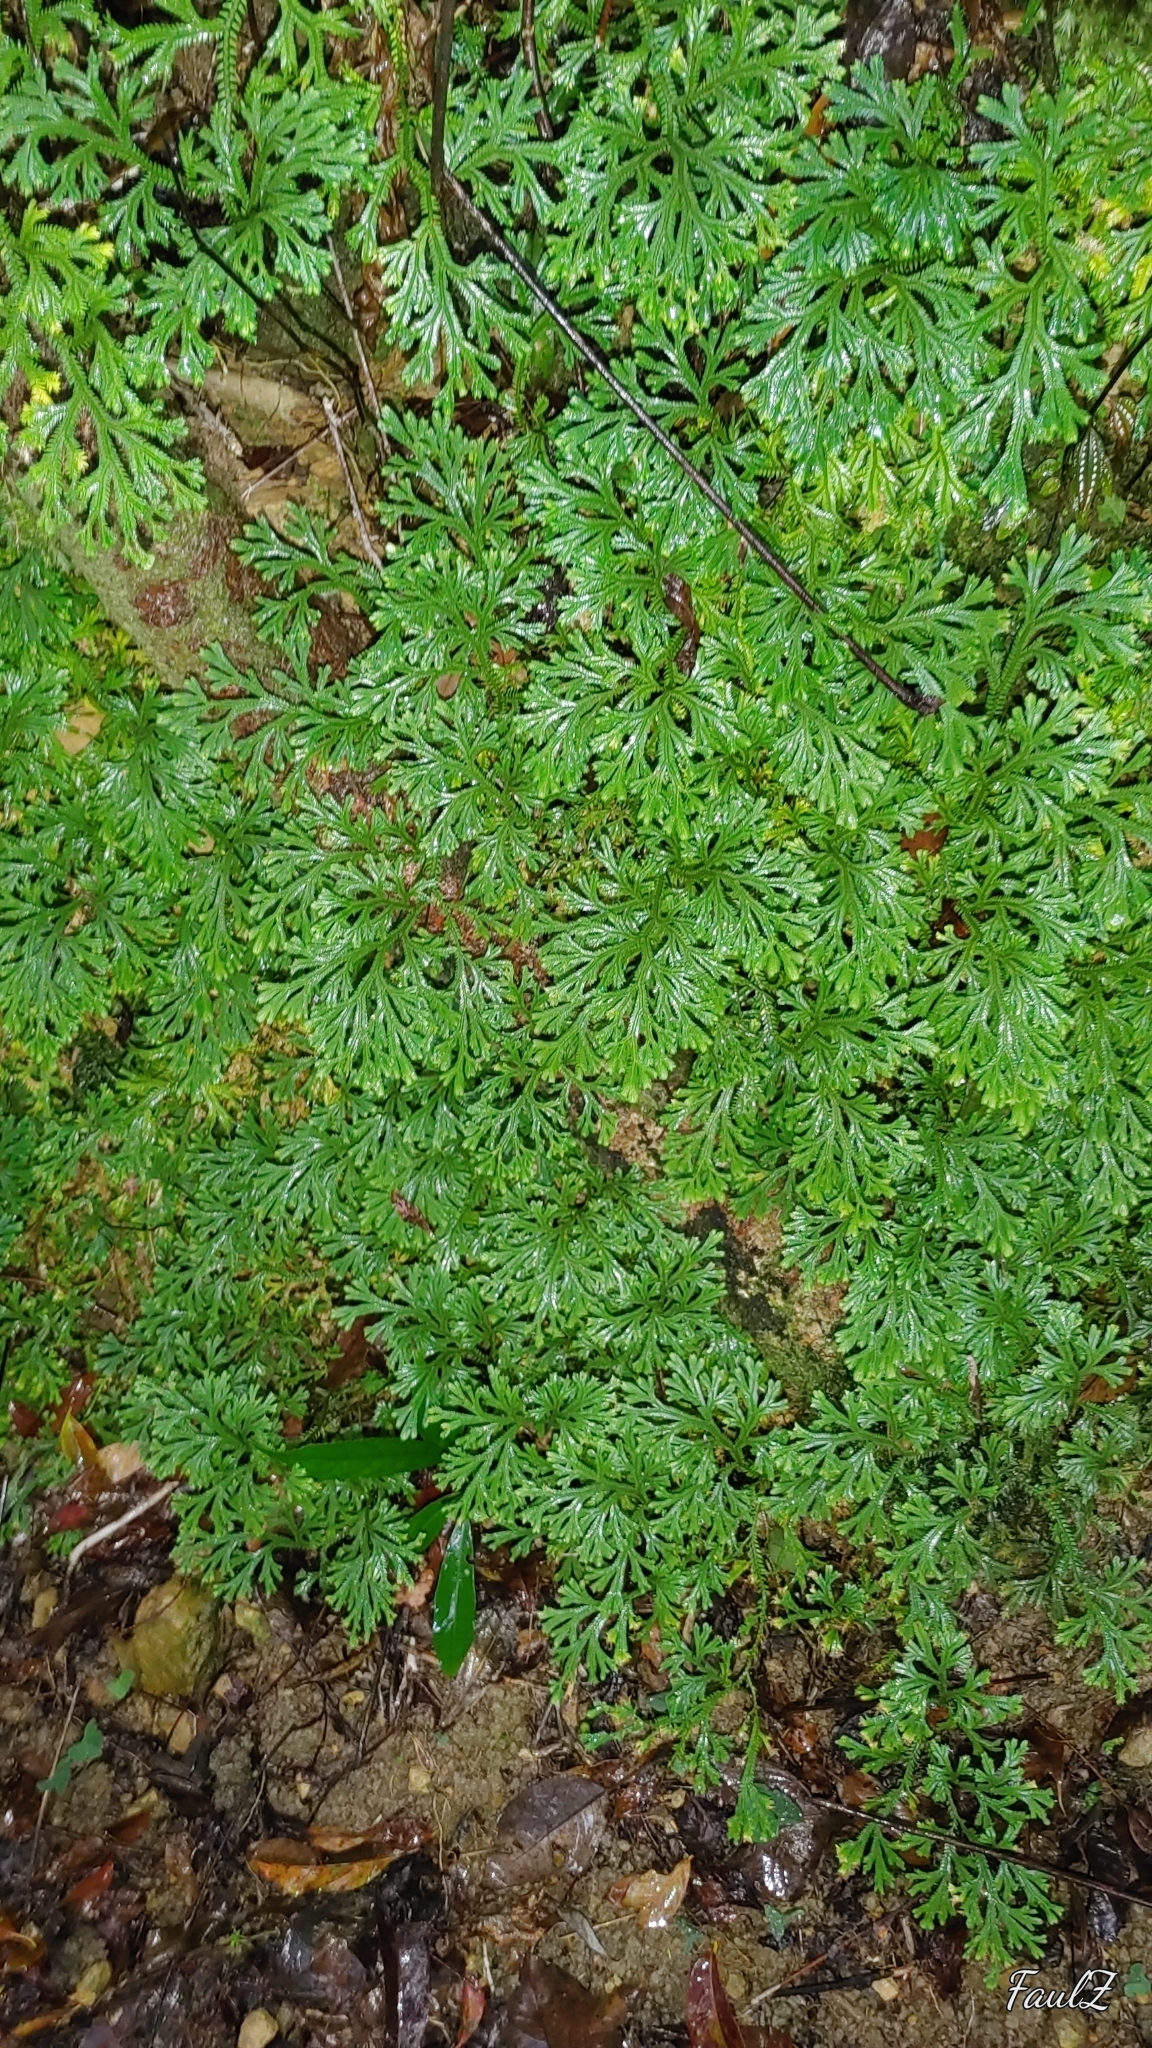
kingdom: Plantae
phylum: Tracheophyta
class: Lycopodiopsida
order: Selaginellales
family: Selaginellaceae
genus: Selaginella
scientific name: Selaginella doederleinii
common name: Greater selaginella
